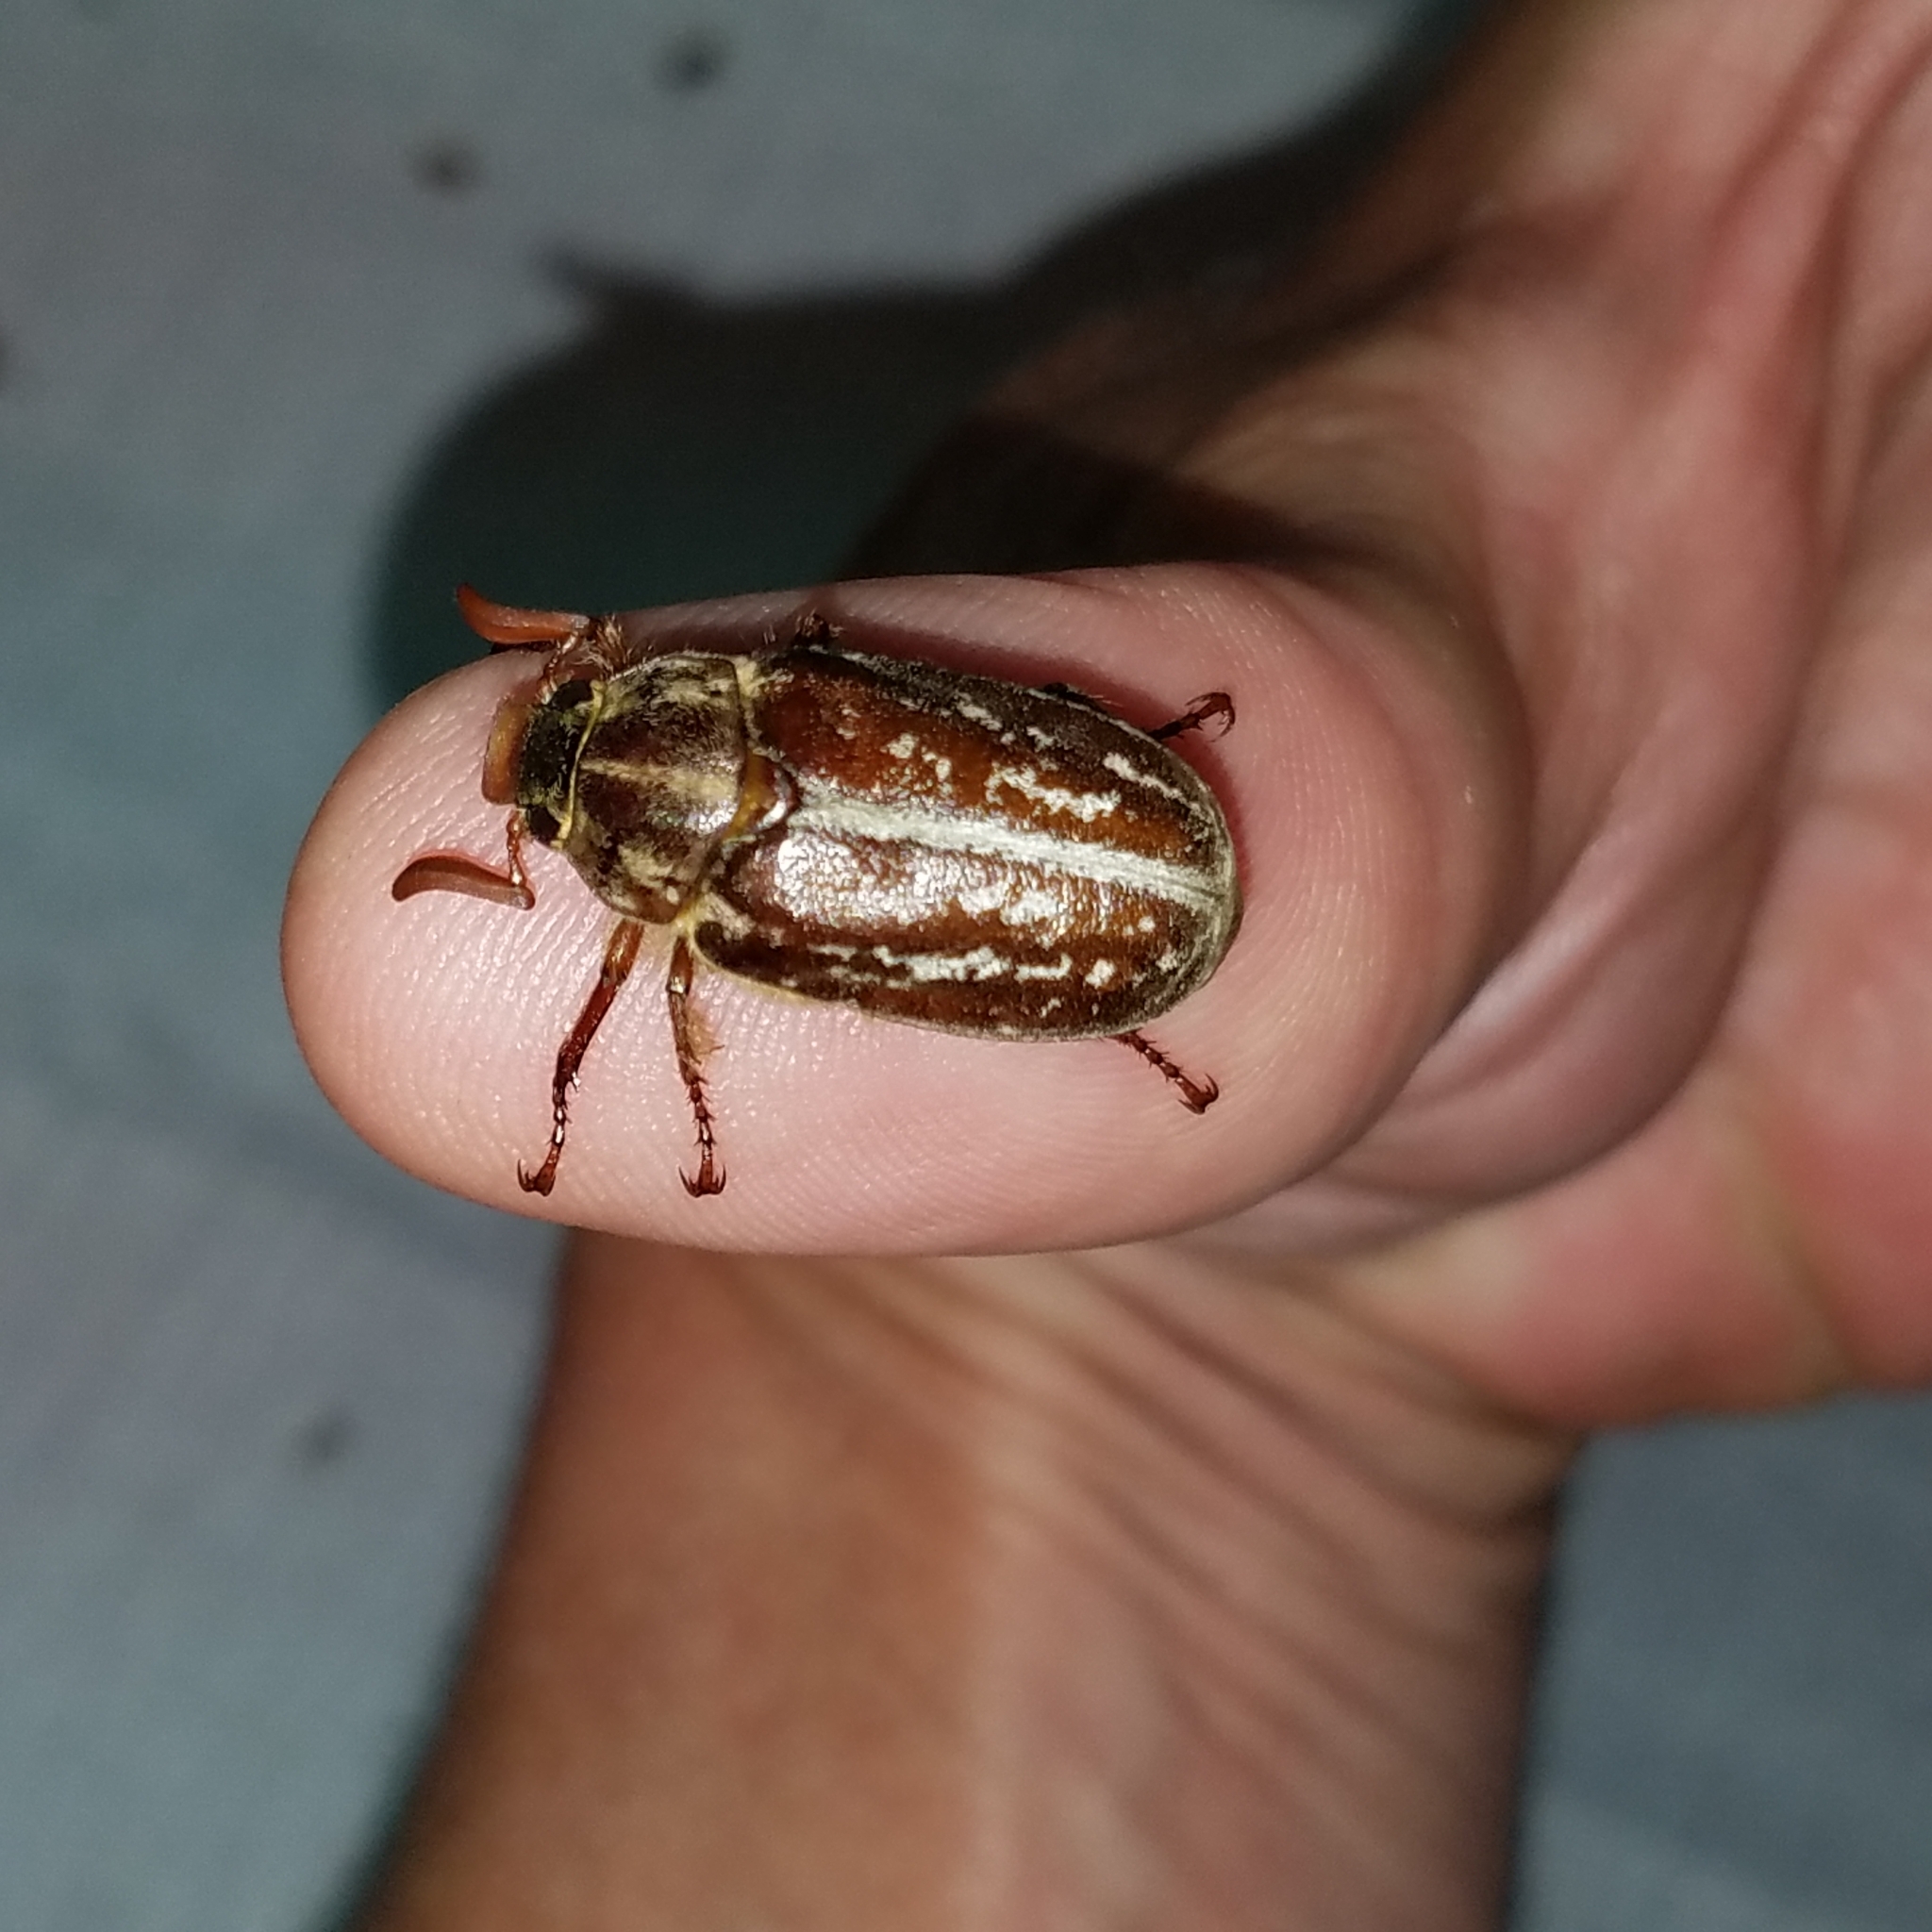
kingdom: Animalia
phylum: Arthropoda
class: Insecta
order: Coleoptera
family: Scarabaeidae
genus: Polyphylla
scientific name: Polyphylla variolosa
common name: Variegated june beetle
